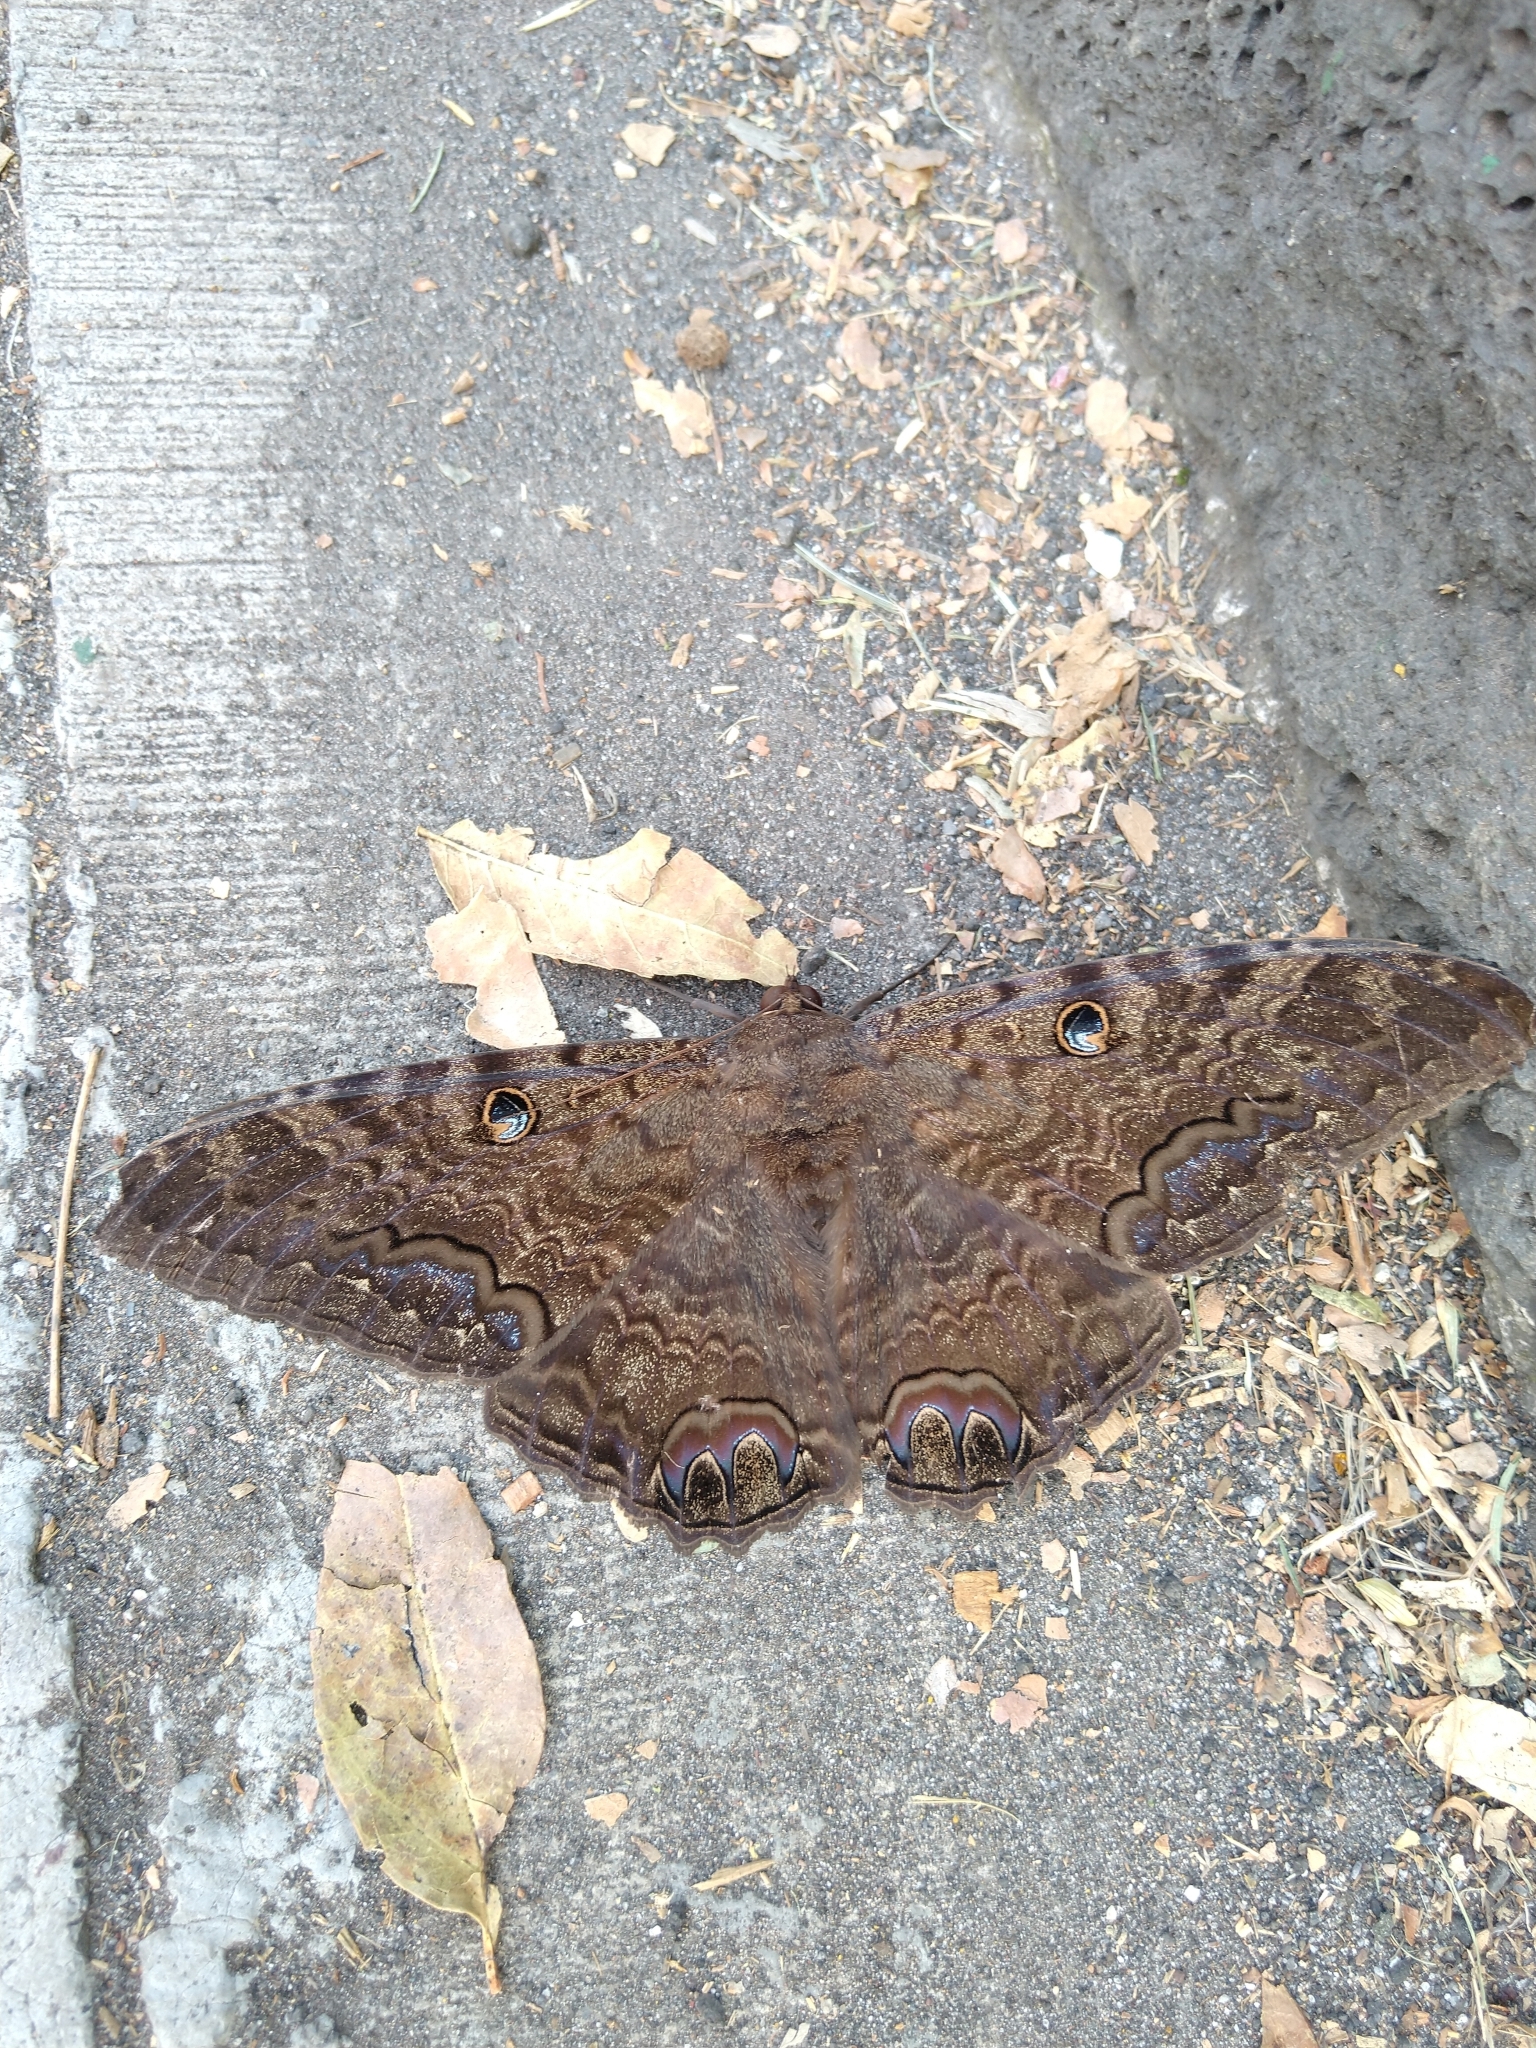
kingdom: Animalia
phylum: Arthropoda
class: Insecta
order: Lepidoptera
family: Erebidae
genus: Ascalapha
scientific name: Ascalapha odorata
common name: Black witch
